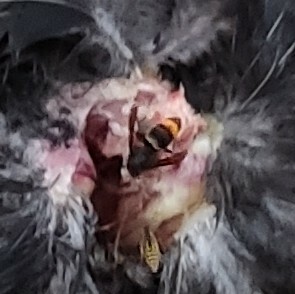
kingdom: Animalia
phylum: Arthropoda
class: Insecta
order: Hymenoptera
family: Vespidae
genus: Vespa
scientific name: Vespa velutina
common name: Asian hornet
